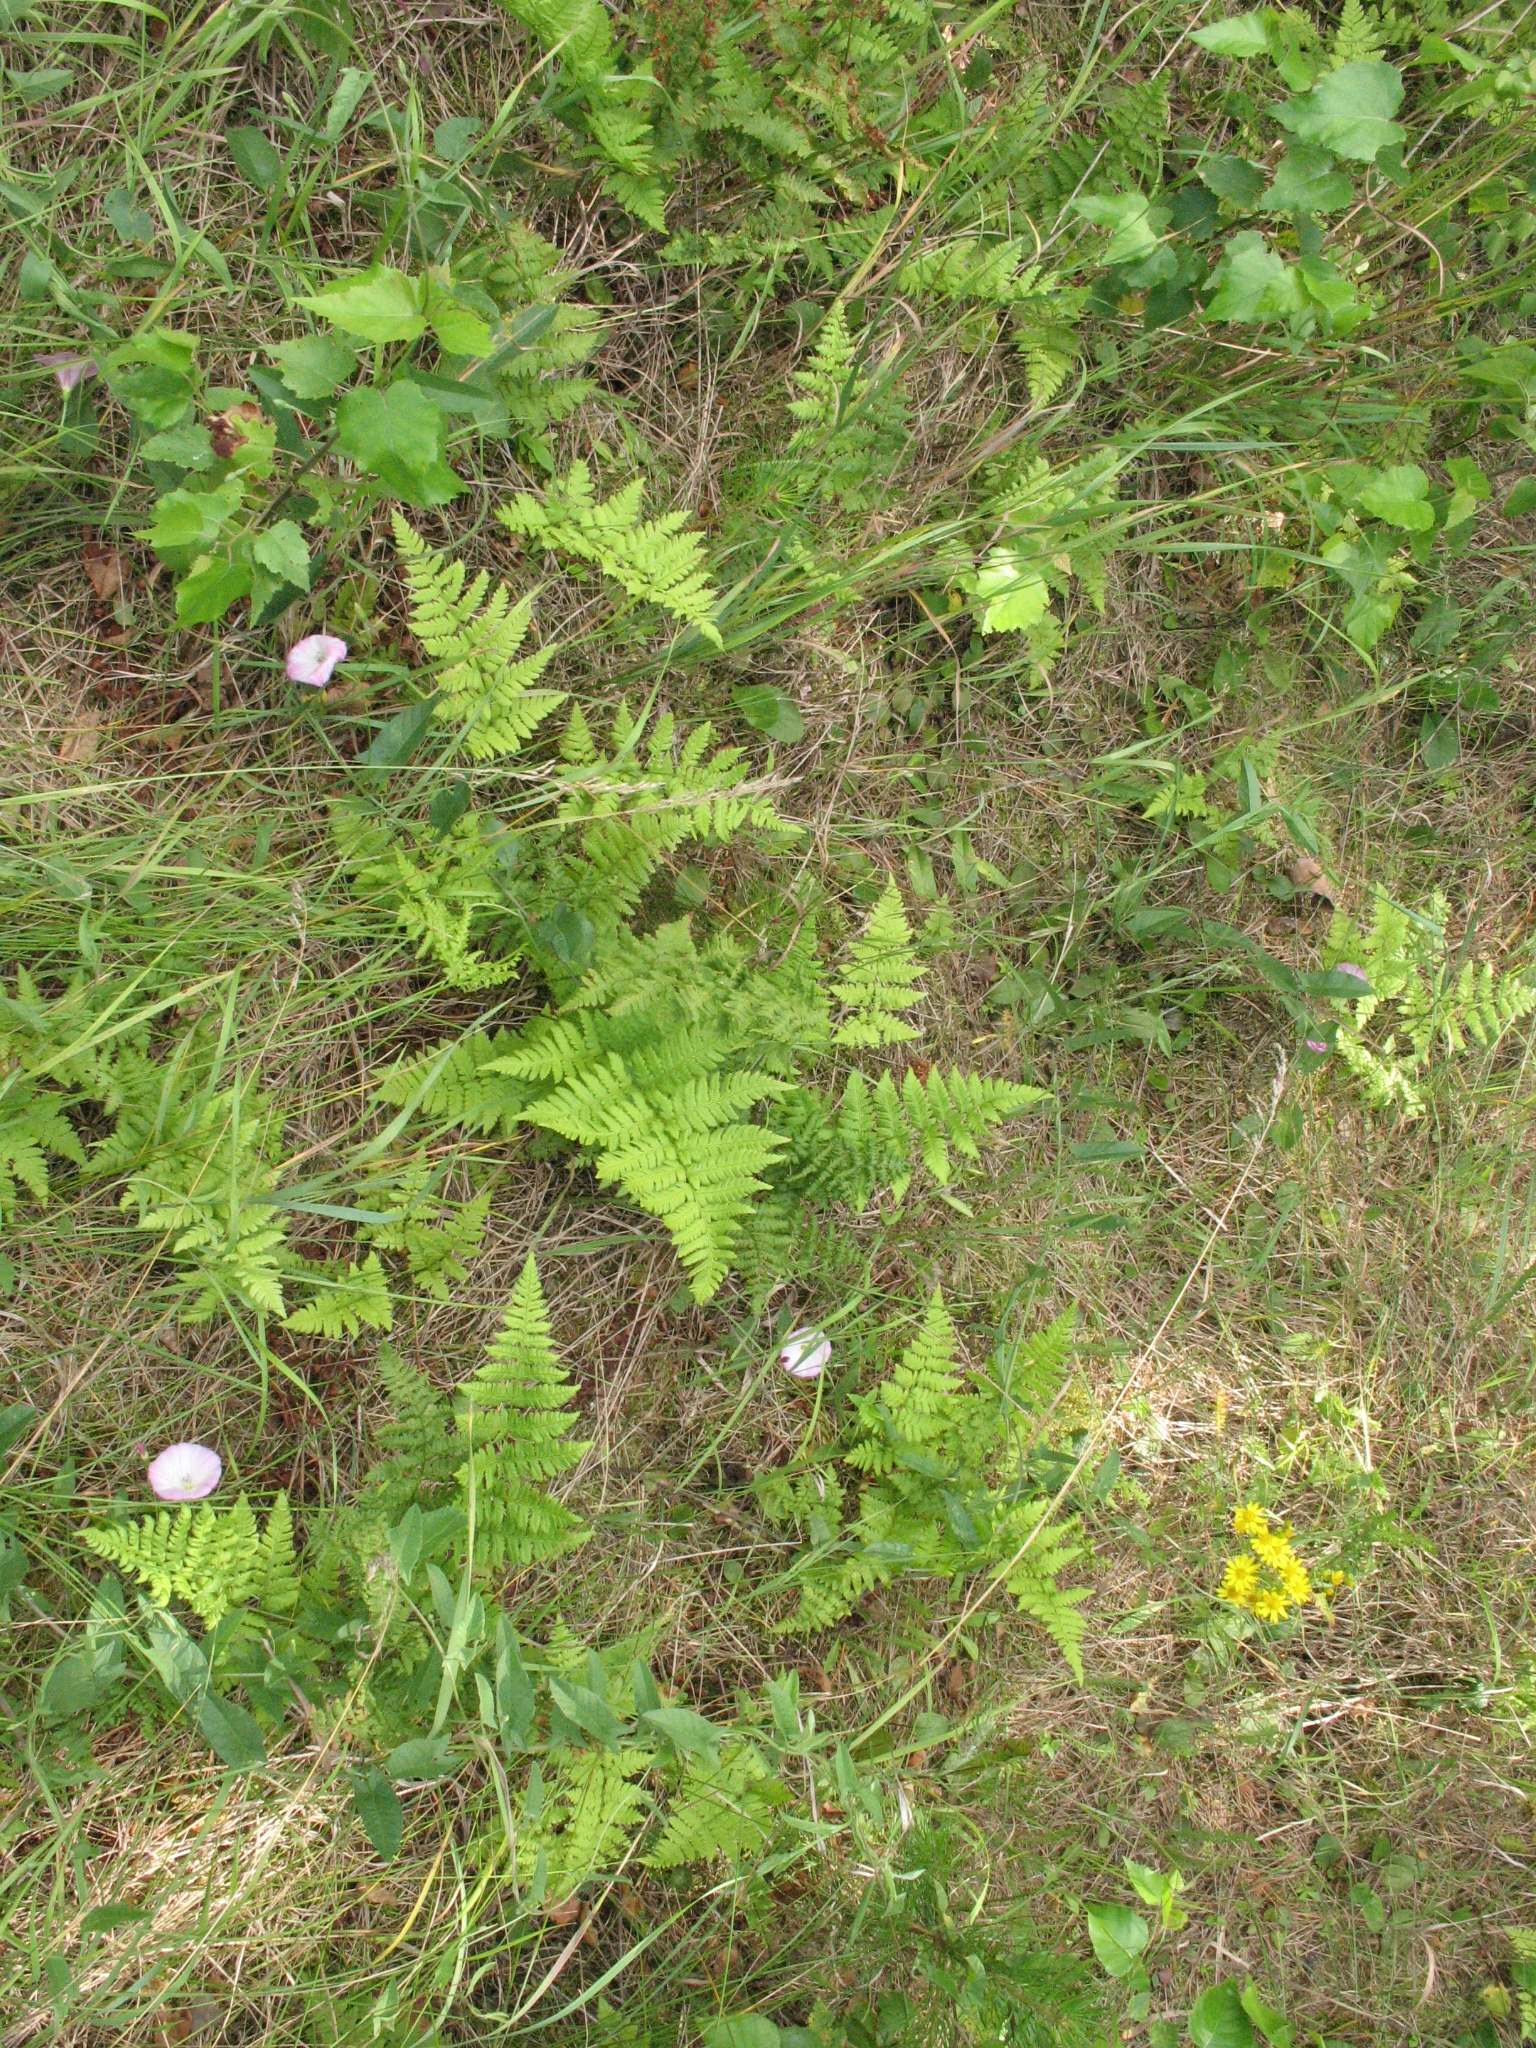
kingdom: Plantae
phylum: Tracheophyta
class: Polypodiopsida
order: Polypodiales
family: Dryopteridaceae
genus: Dryopteris
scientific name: Dryopteris carthusiana
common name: Narrow buckler-fern
